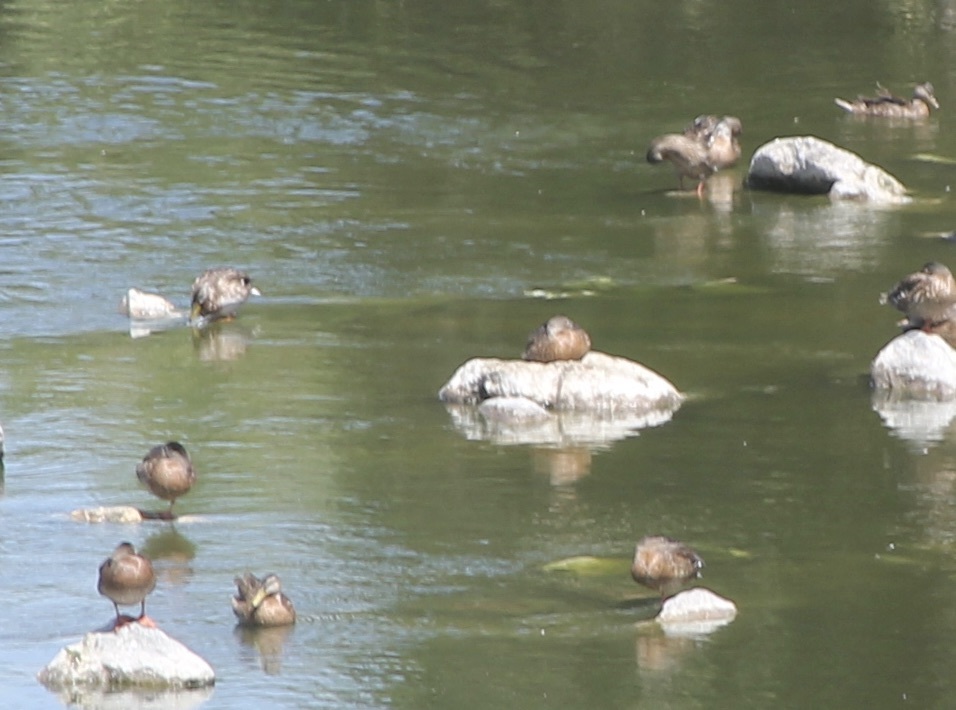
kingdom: Animalia
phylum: Chordata
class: Aves
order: Anseriformes
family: Anatidae
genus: Anas
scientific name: Anas platyrhynchos
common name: Mallard
